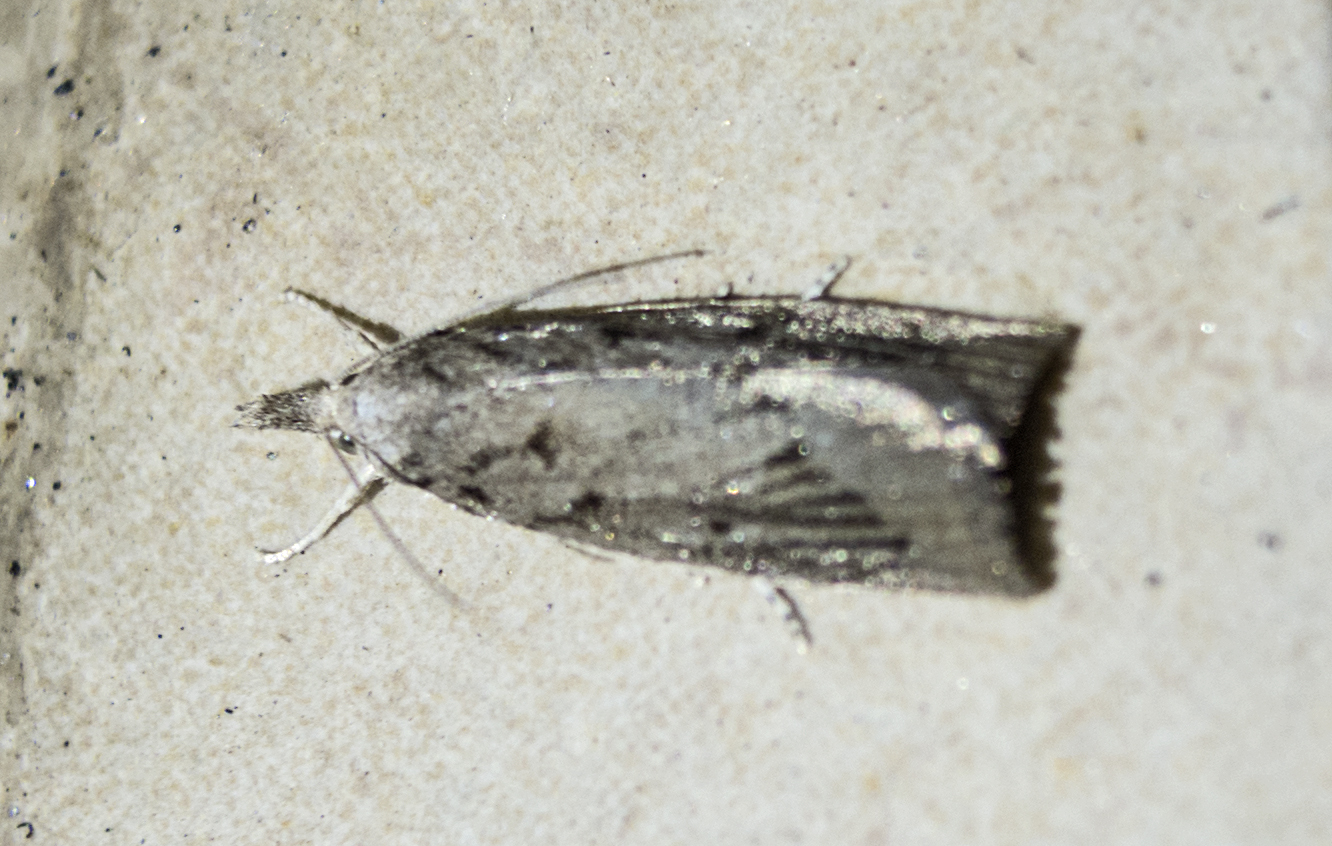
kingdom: Animalia
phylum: Arthropoda
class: Insecta
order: Lepidoptera
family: Crambidae
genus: Calamotropha
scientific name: Calamotropha paludella
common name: Bulrush veneer
